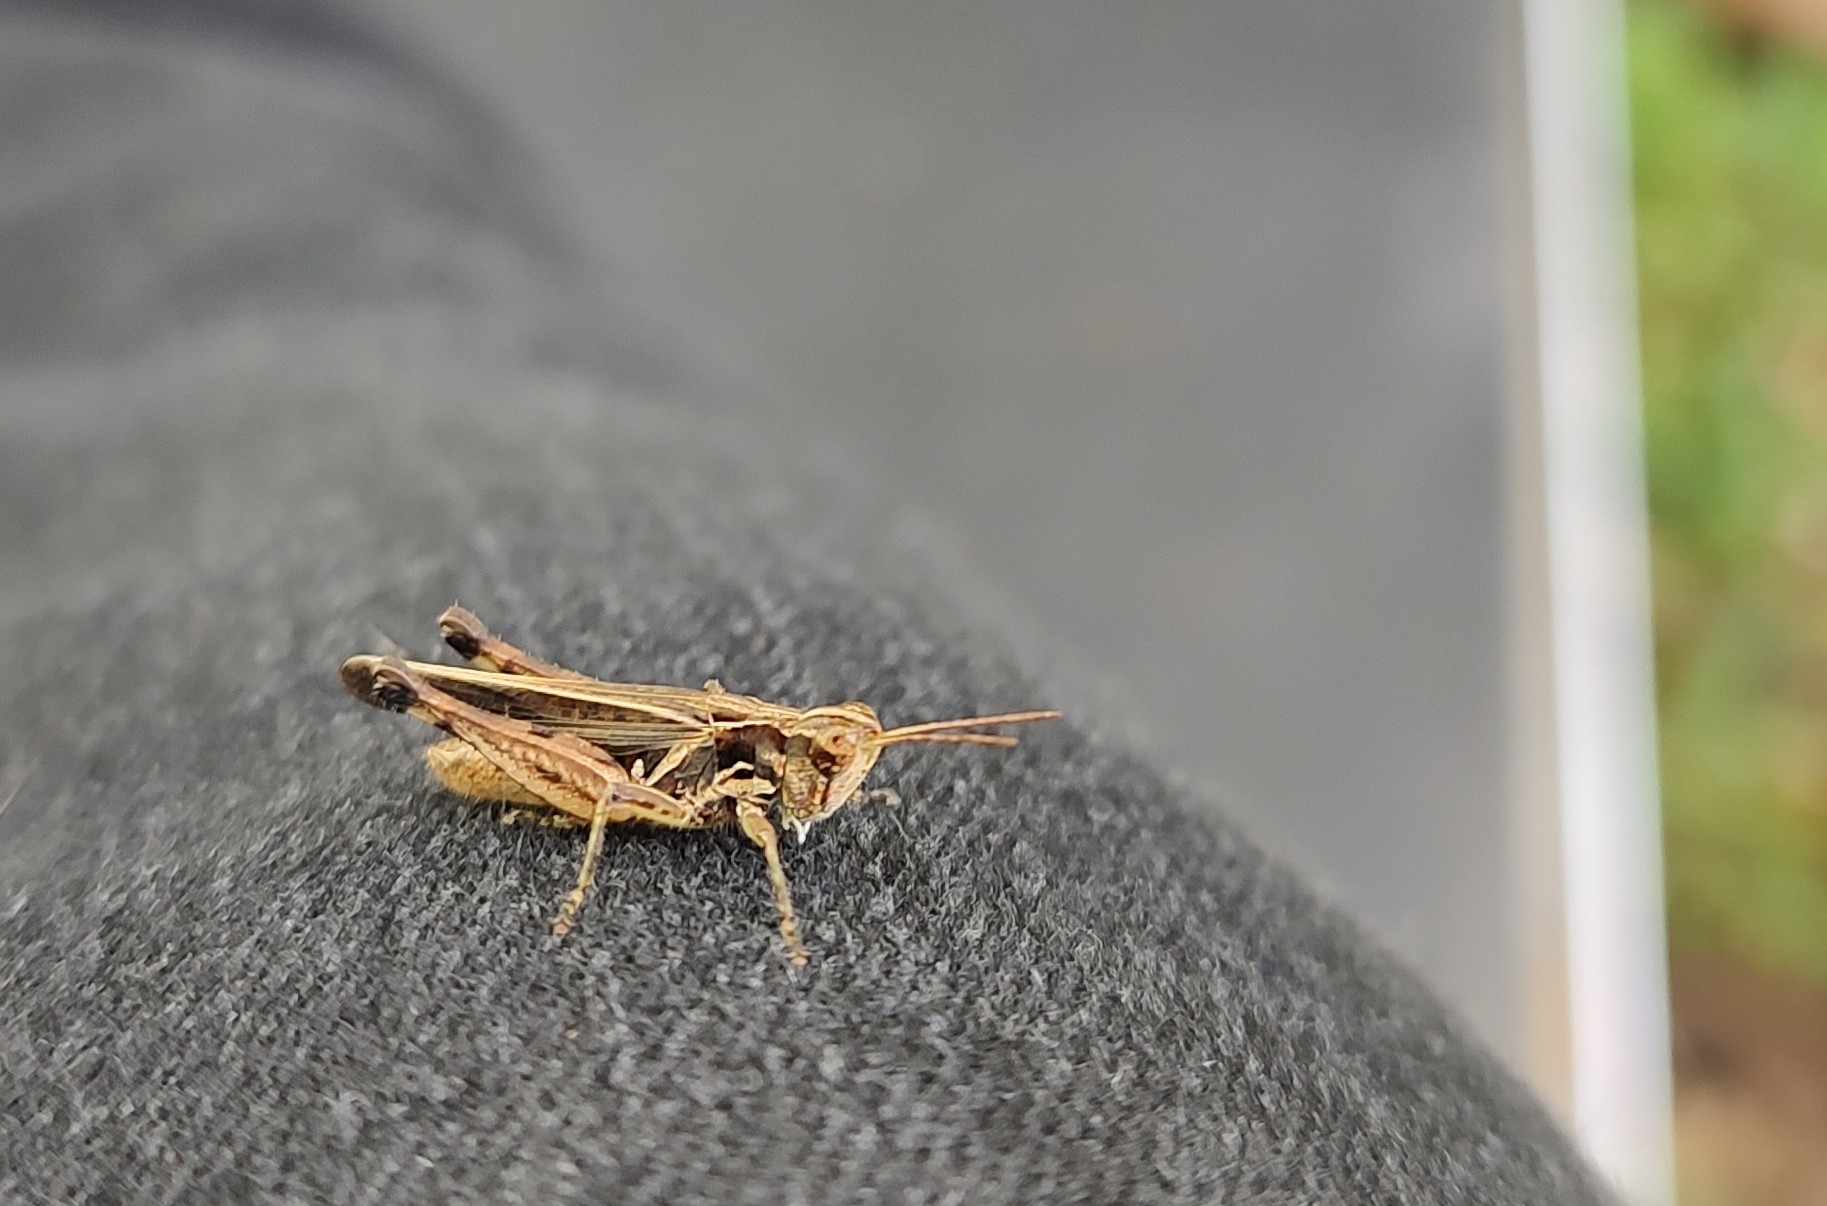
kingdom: Animalia
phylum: Arthropoda
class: Insecta
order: Orthoptera
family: Acrididae
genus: Orphulella
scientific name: Orphulella punctata
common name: Slant-faced grasshopper
